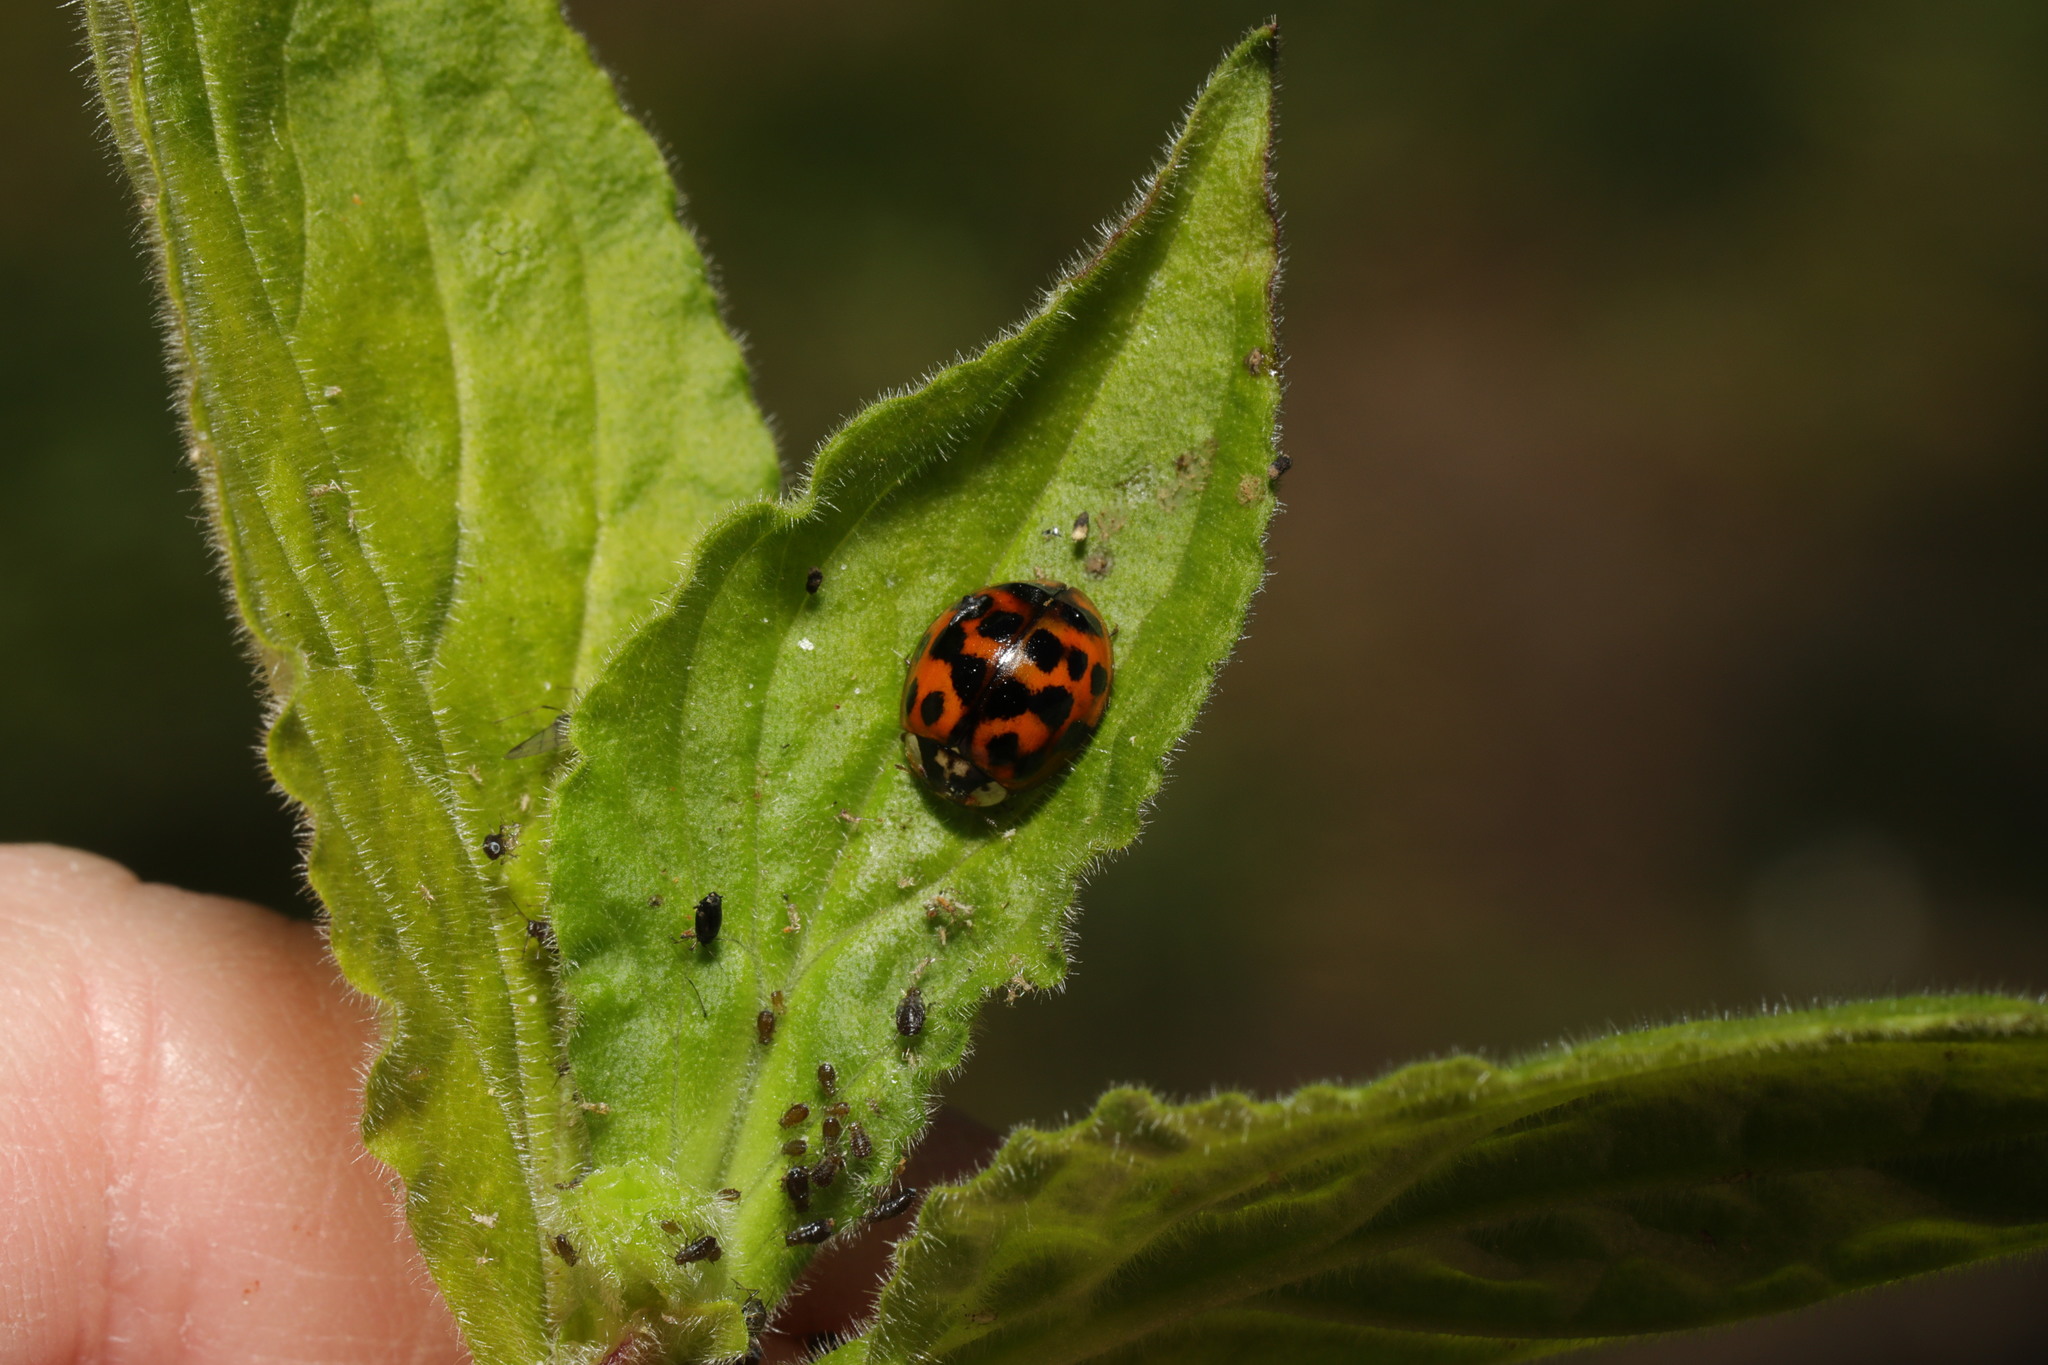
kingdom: Animalia
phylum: Arthropoda
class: Insecta
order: Coleoptera
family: Coccinellidae
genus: Harmonia
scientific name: Harmonia axyridis
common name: Harlequin ladybird
